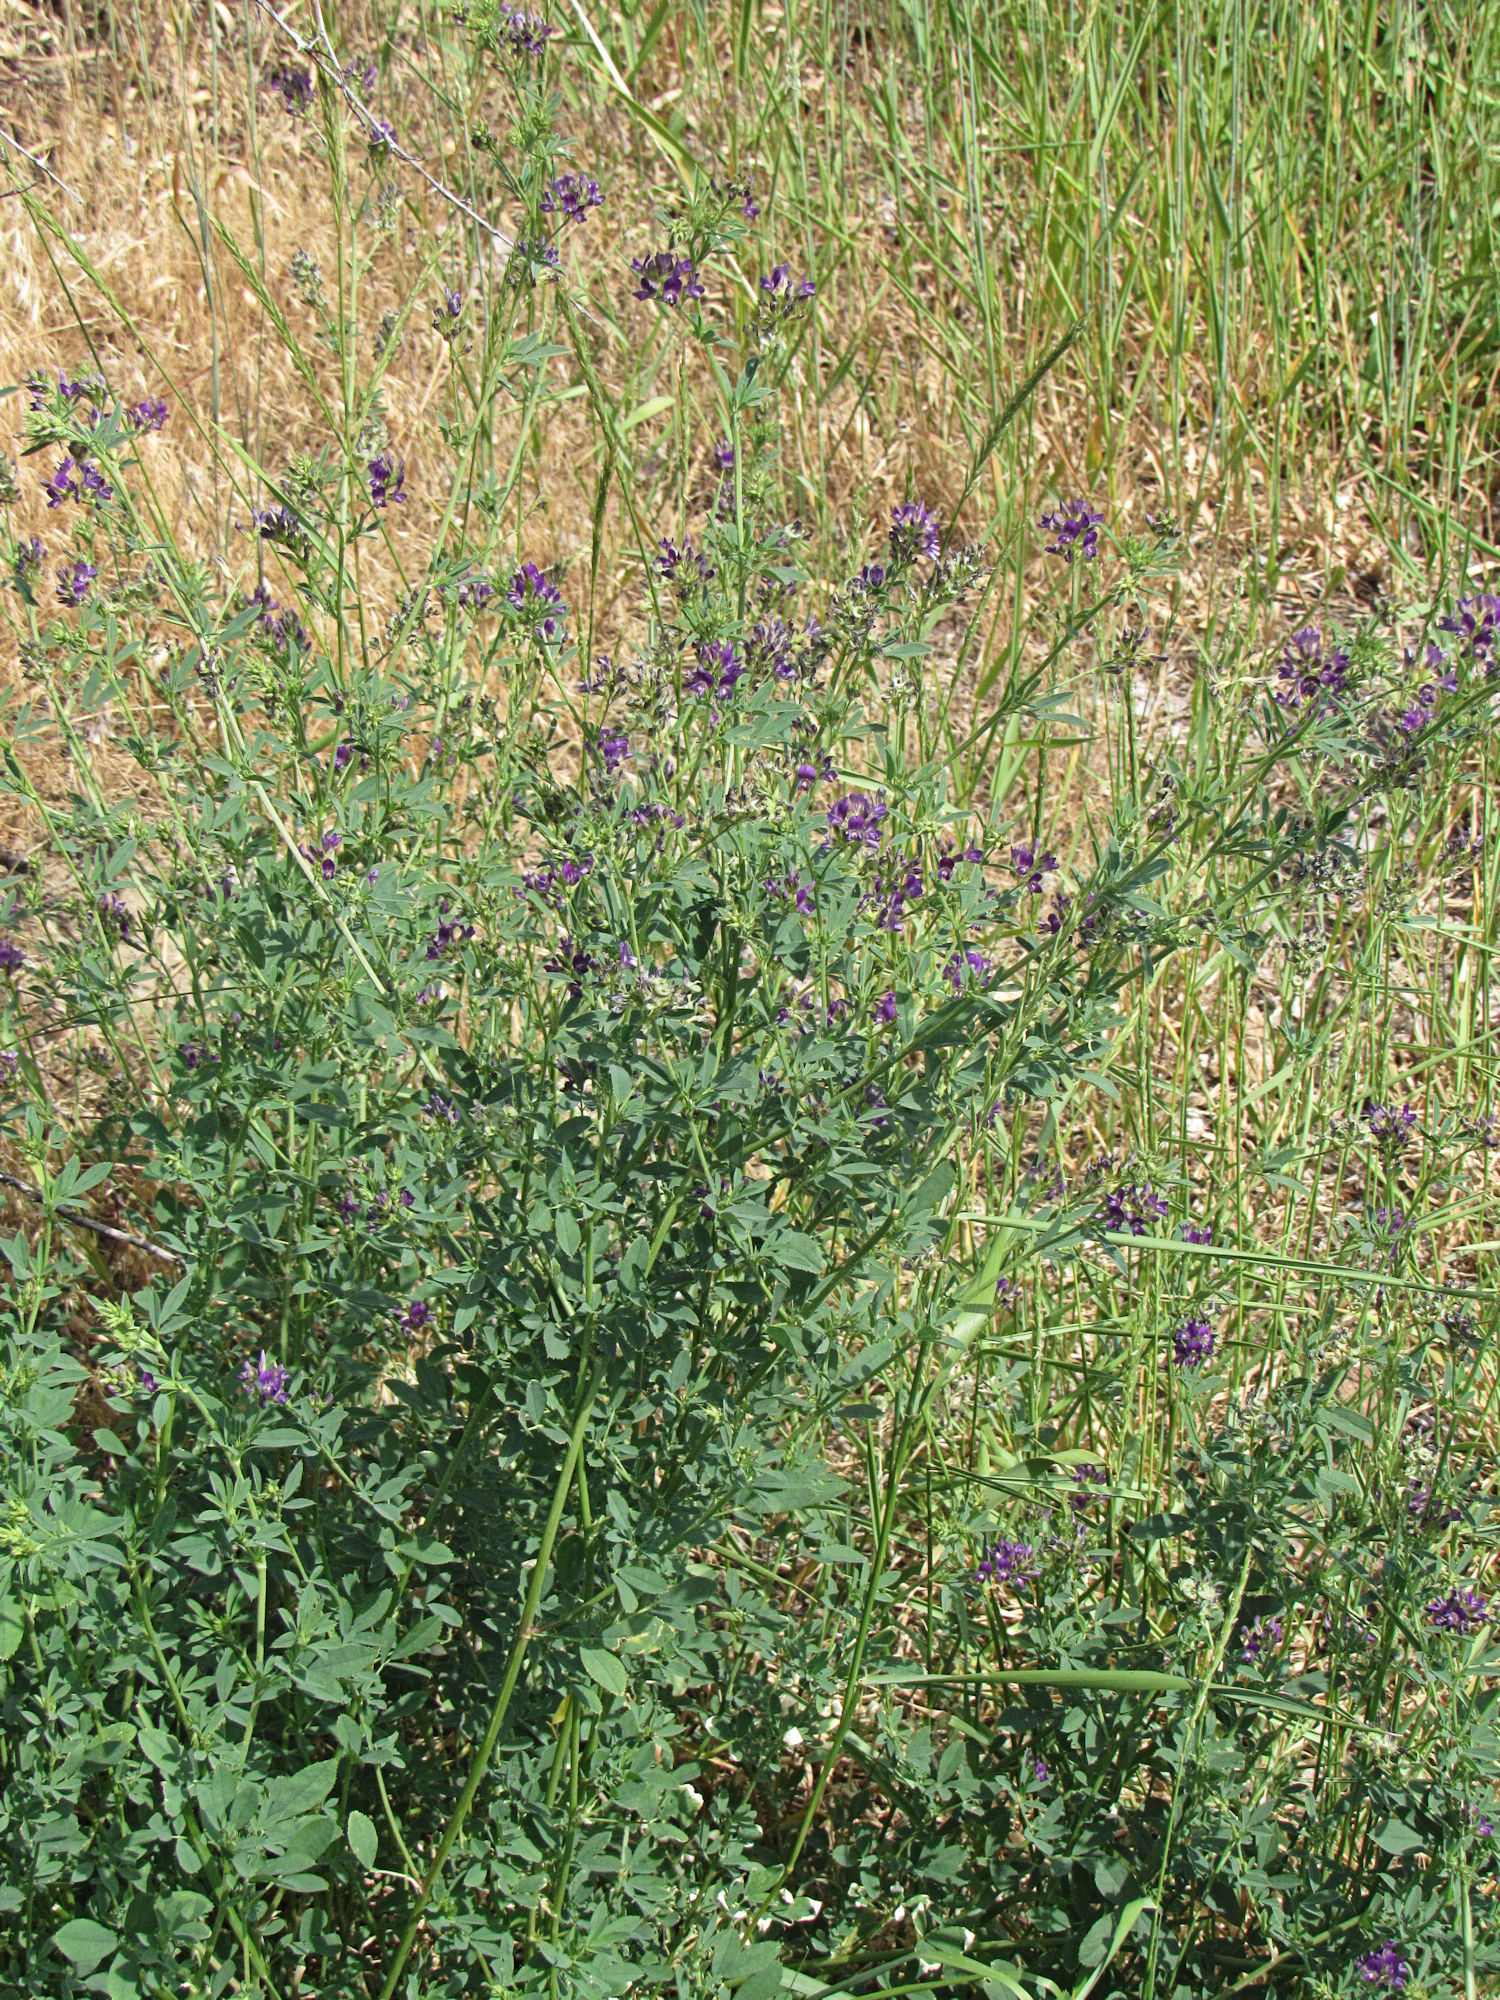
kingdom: Plantae
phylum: Tracheophyta
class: Magnoliopsida
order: Fabales
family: Fabaceae
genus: Medicago
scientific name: Medicago sativa
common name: Alfalfa
